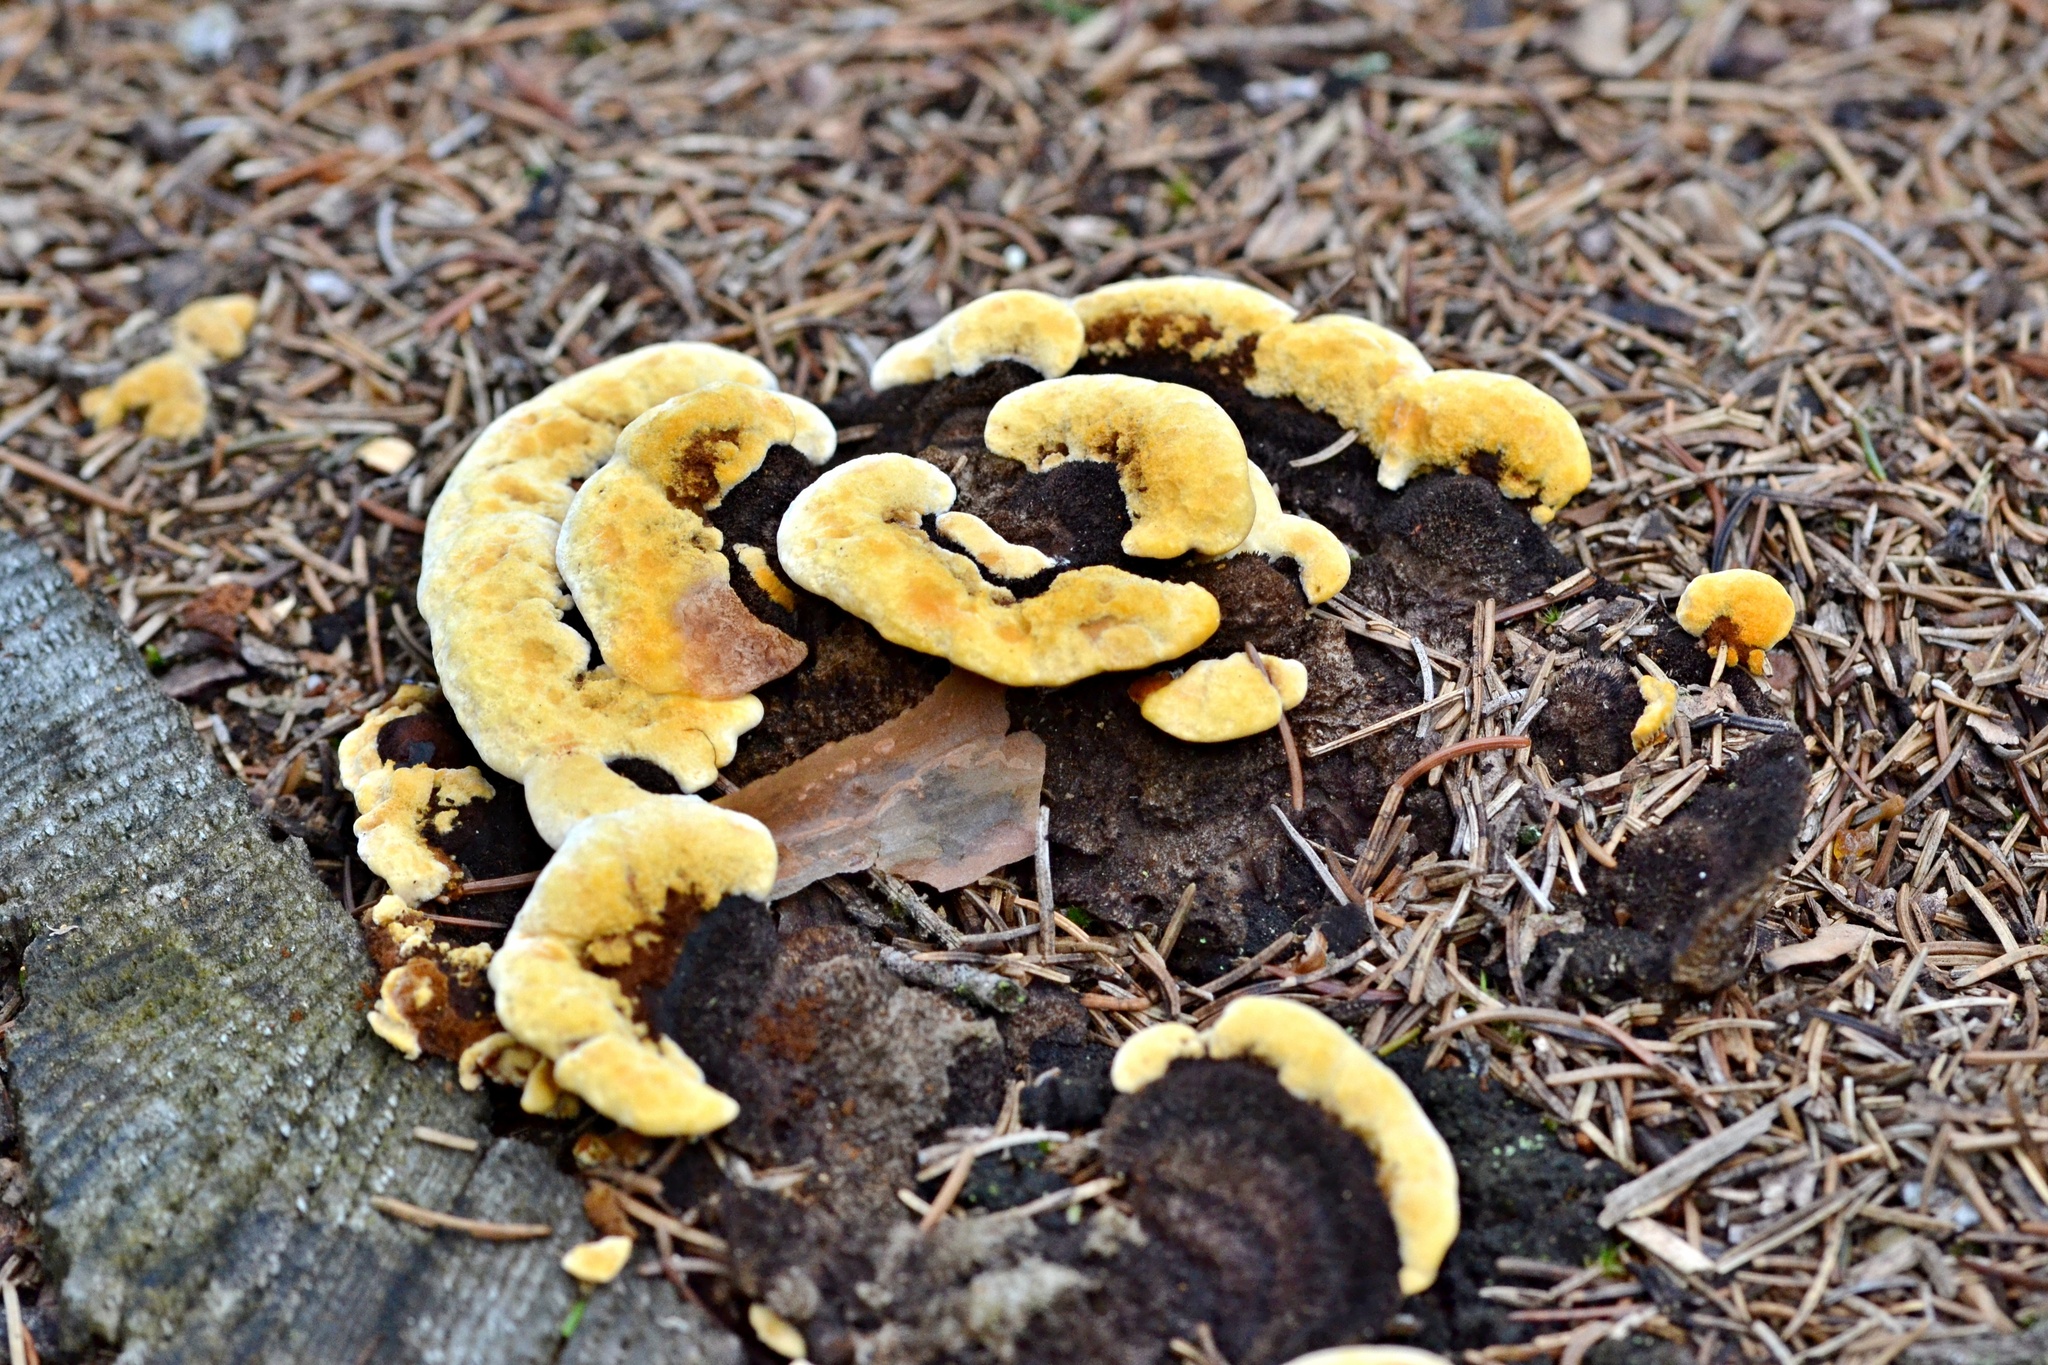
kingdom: Fungi
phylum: Basidiomycota
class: Agaricomycetes
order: Polyporales
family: Laetiporaceae
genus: Phaeolus
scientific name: Phaeolus schweinitzii
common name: Dyer's mazegill
